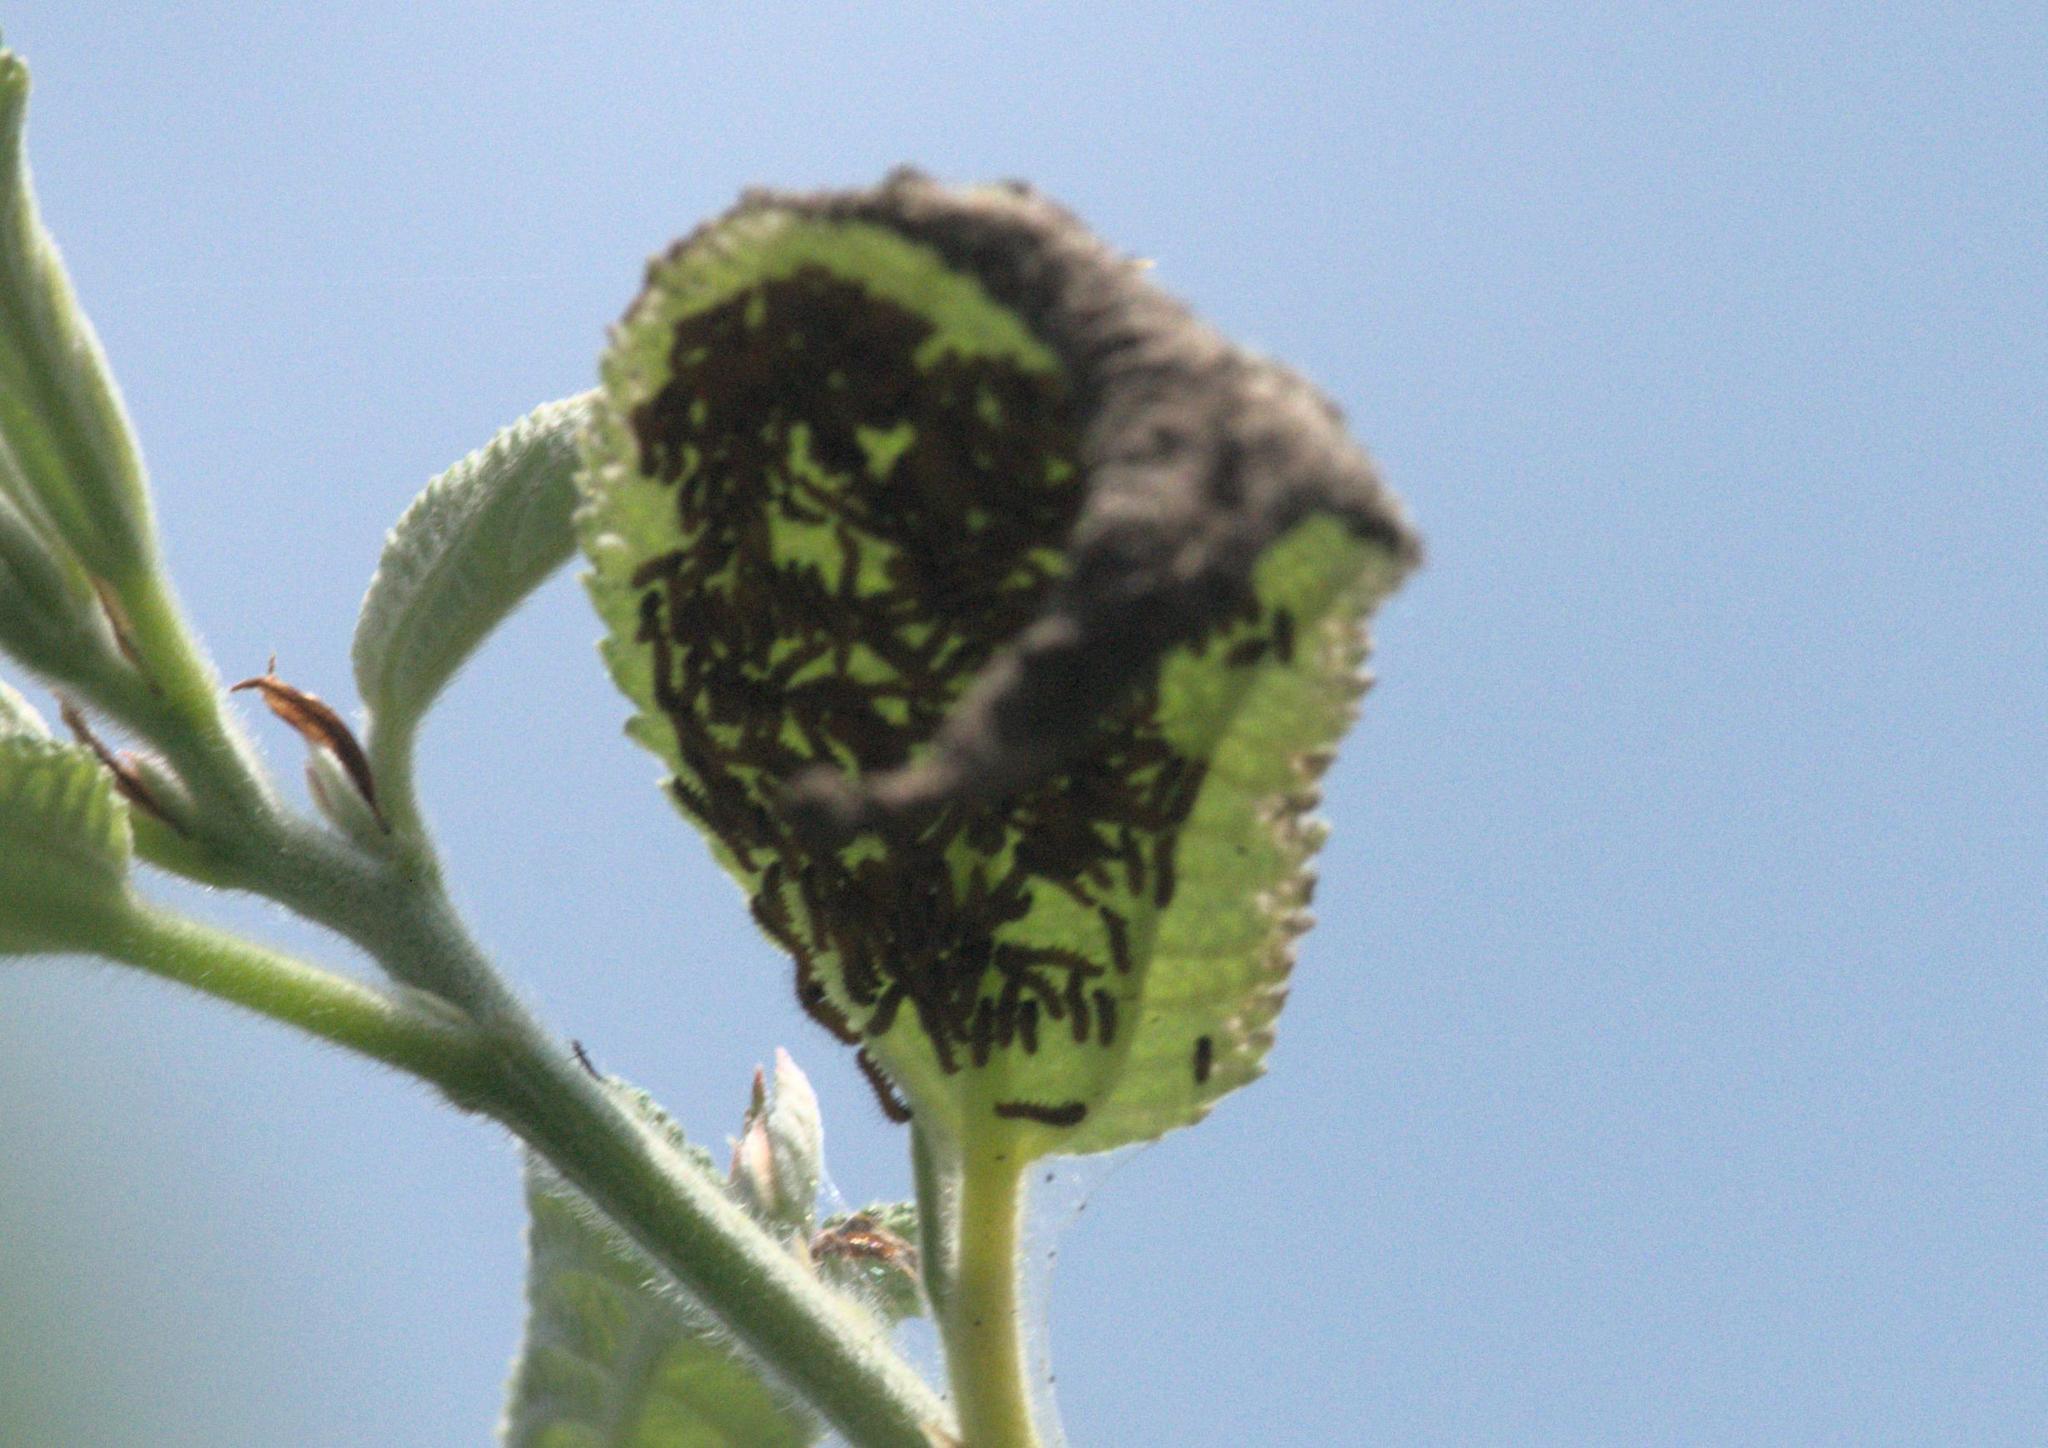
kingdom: Animalia
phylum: Arthropoda
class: Insecta
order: Lepidoptera
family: Nymphalidae
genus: Acraea
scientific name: Acraea Telchinia issoria
